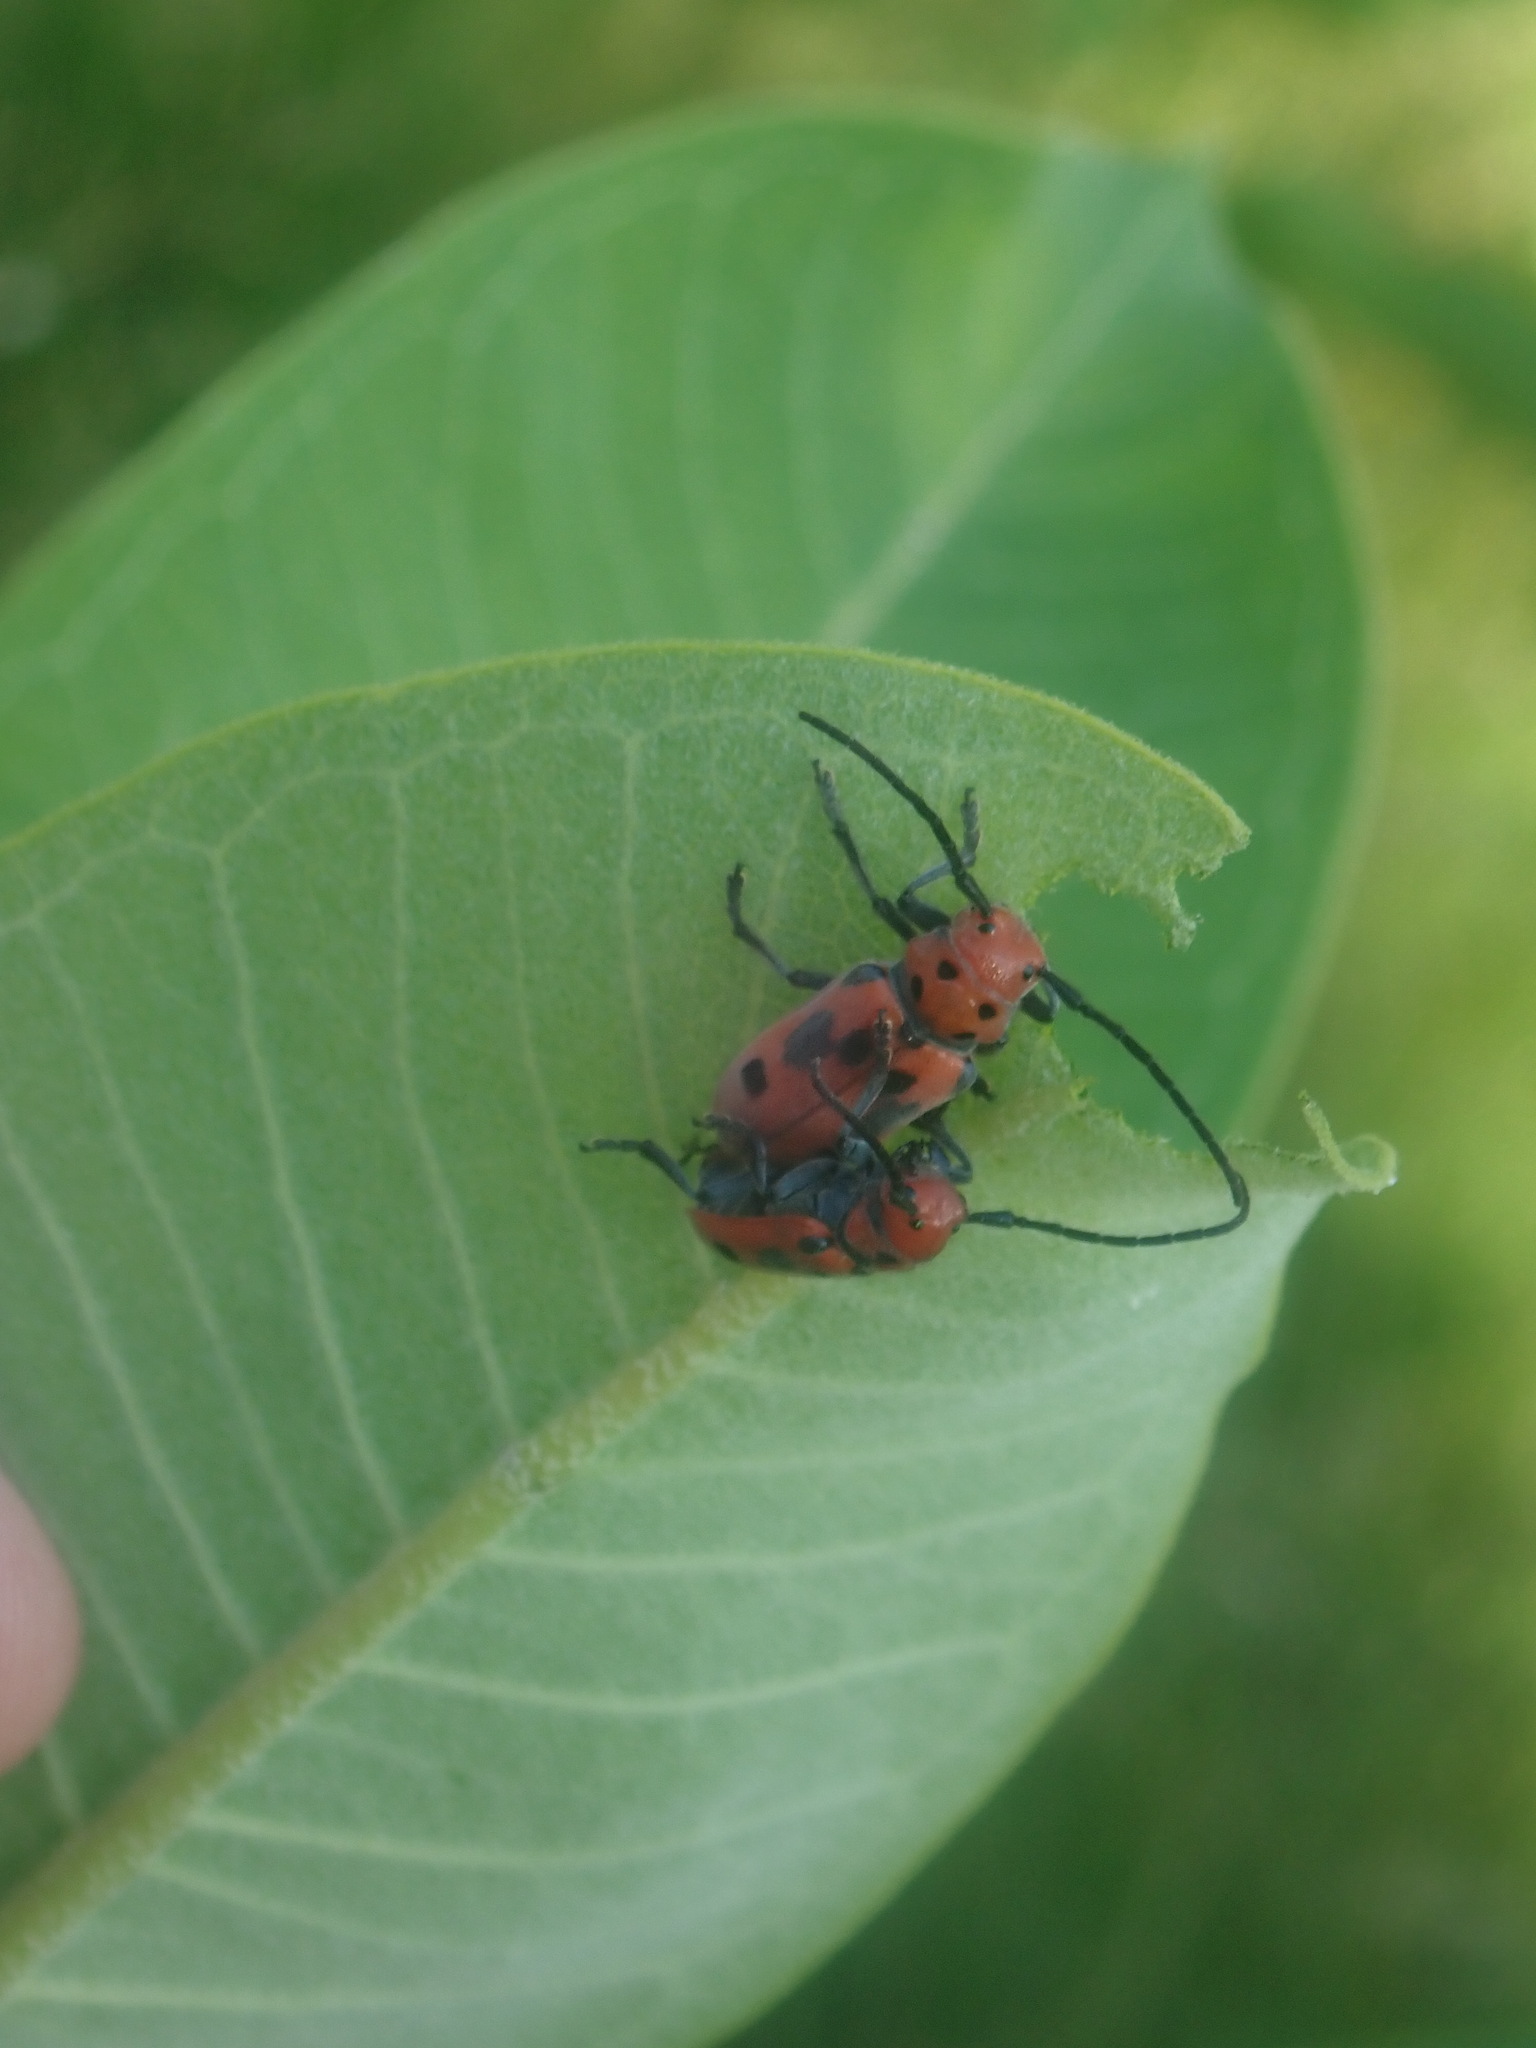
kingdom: Animalia
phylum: Arthropoda
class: Insecta
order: Coleoptera
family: Cerambycidae
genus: Tetraopes
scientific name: Tetraopes tetrophthalmus
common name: Red milkweed beetle
